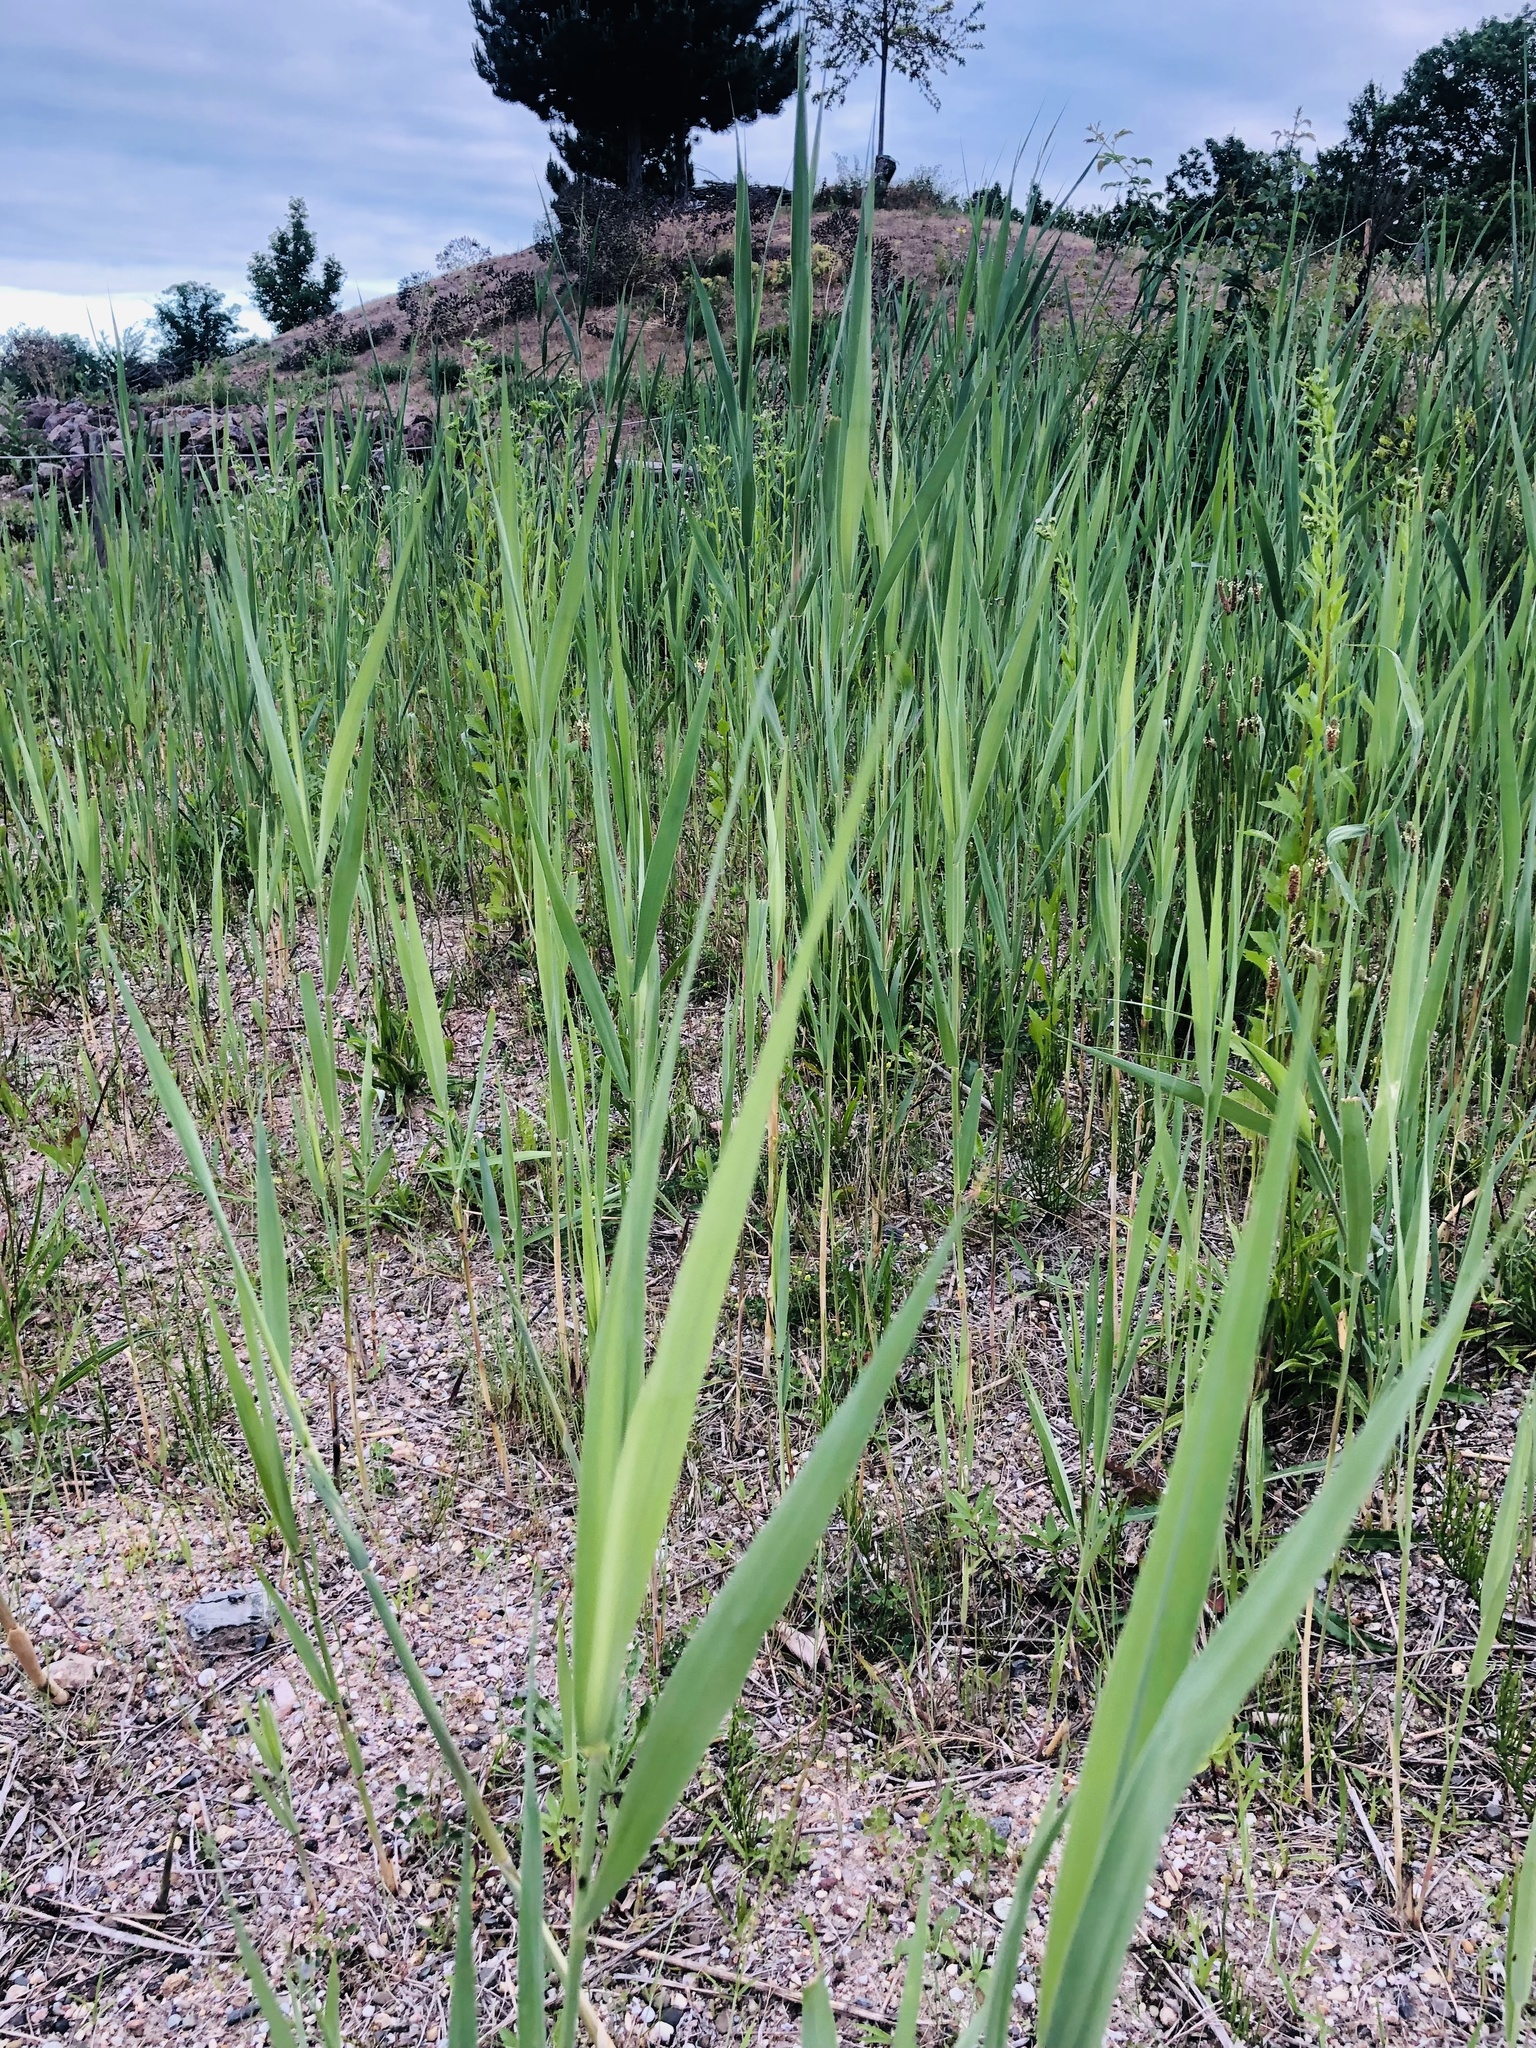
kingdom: Plantae
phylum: Tracheophyta
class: Liliopsida
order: Poales
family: Poaceae
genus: Phragmites
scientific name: Phragmites australis
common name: Common reed
